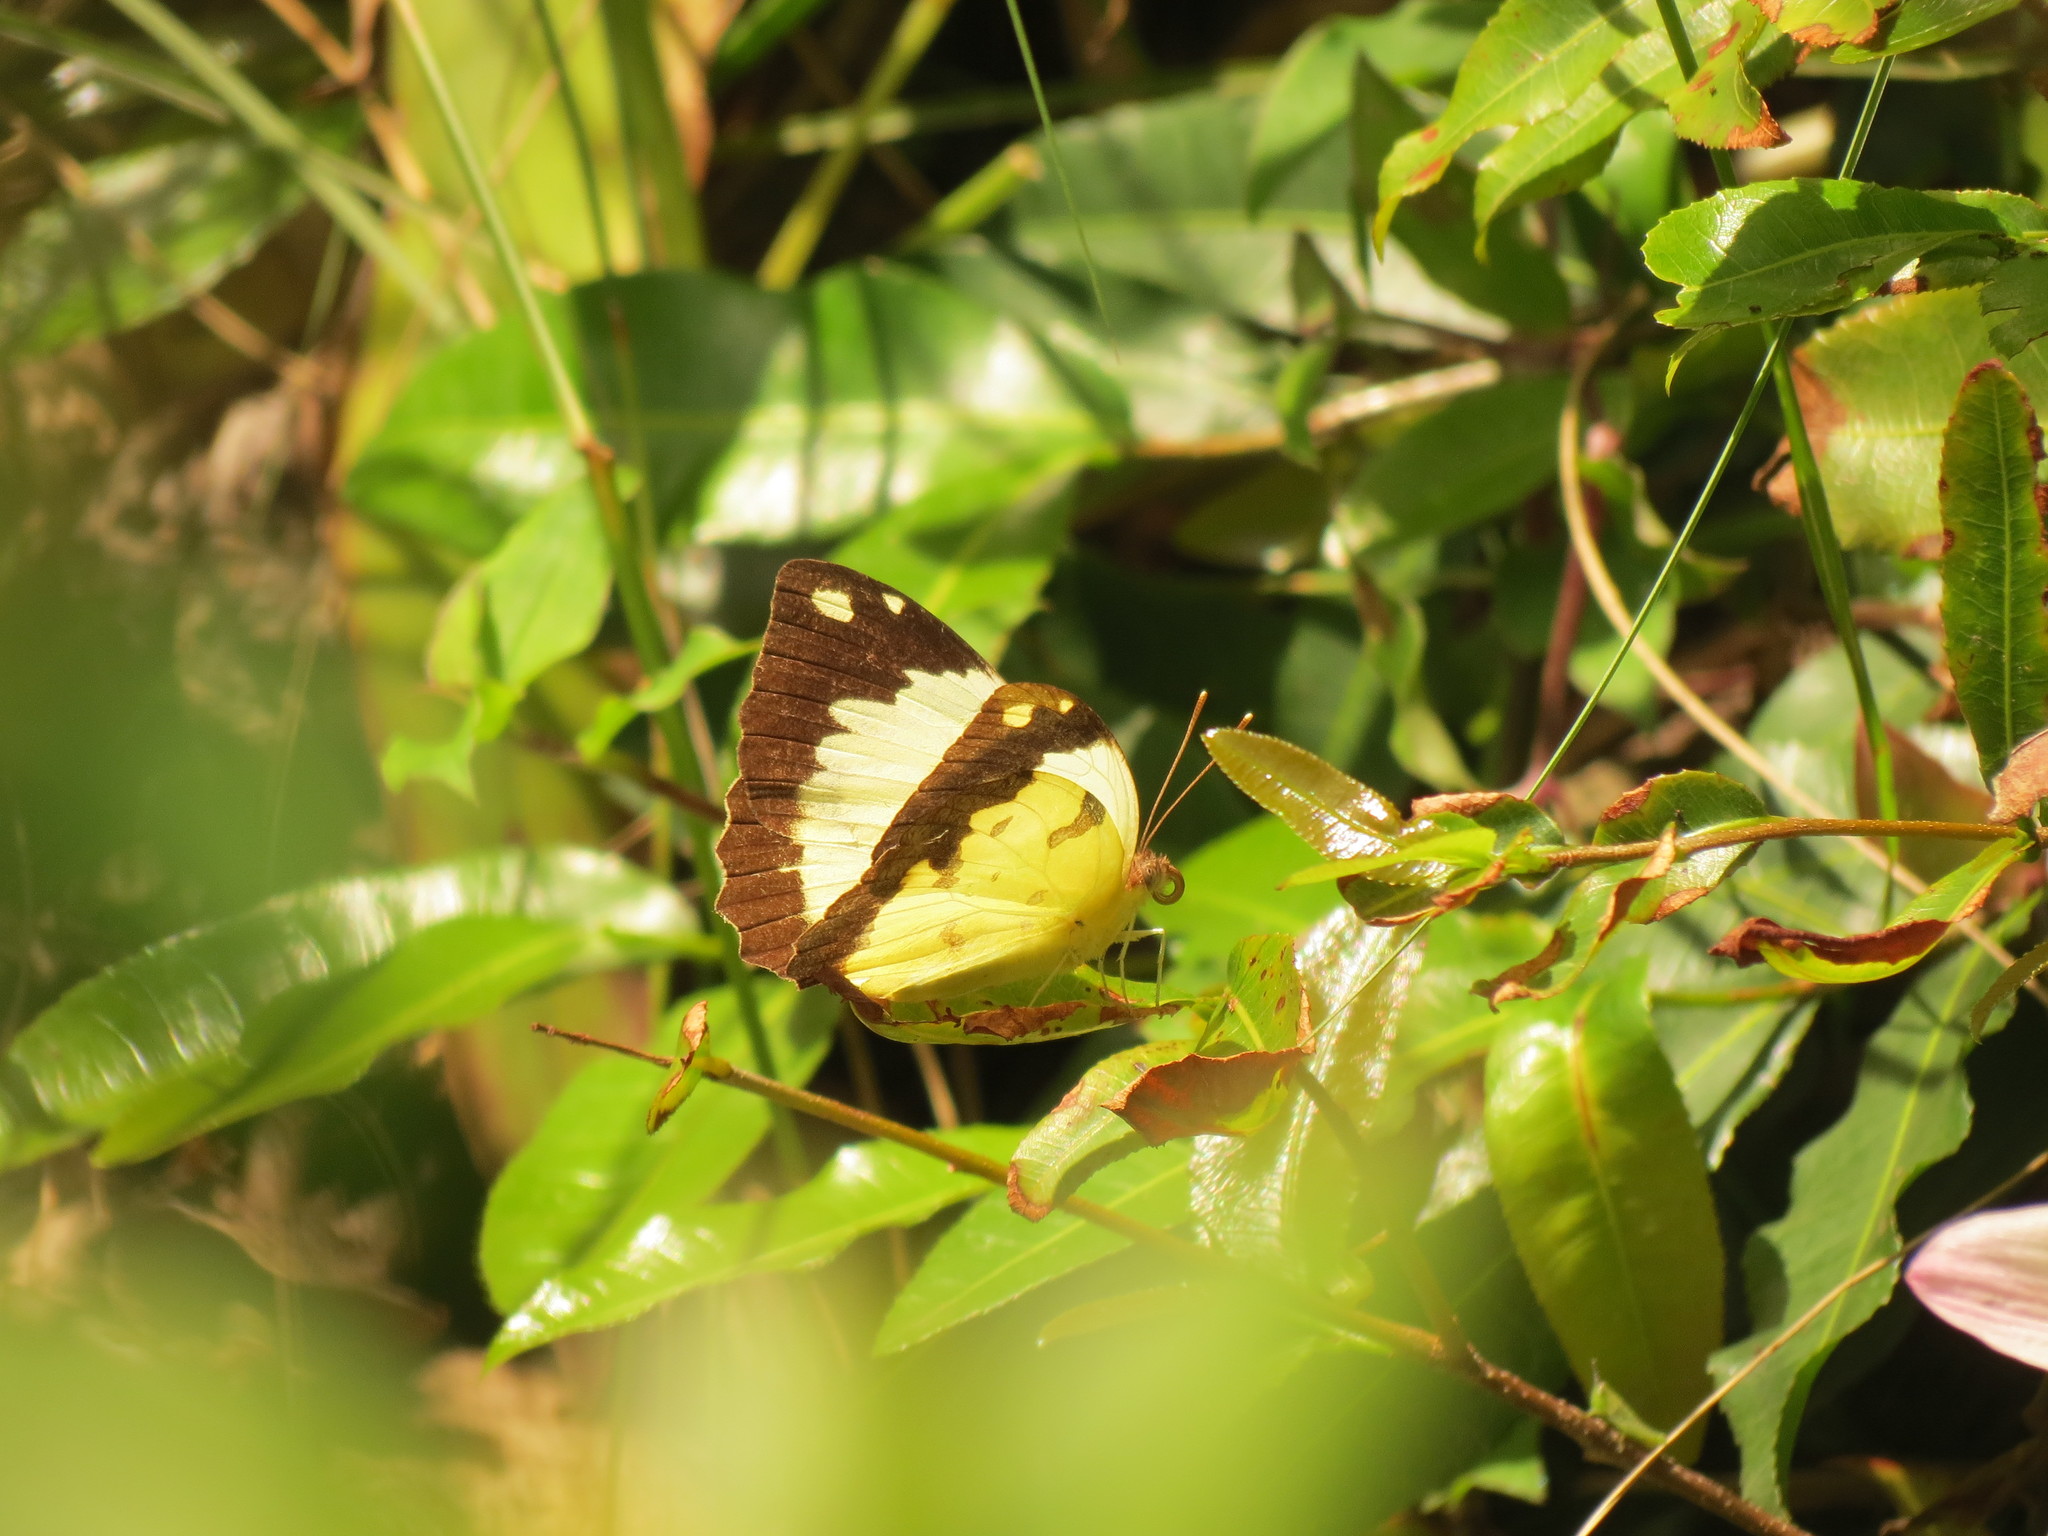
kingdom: Animalia
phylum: Arthropoda
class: Insecta
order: Lepidoptera
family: Pieridae
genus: Eronia
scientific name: Eronia cleodora
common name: Vine-leaf vagrant
